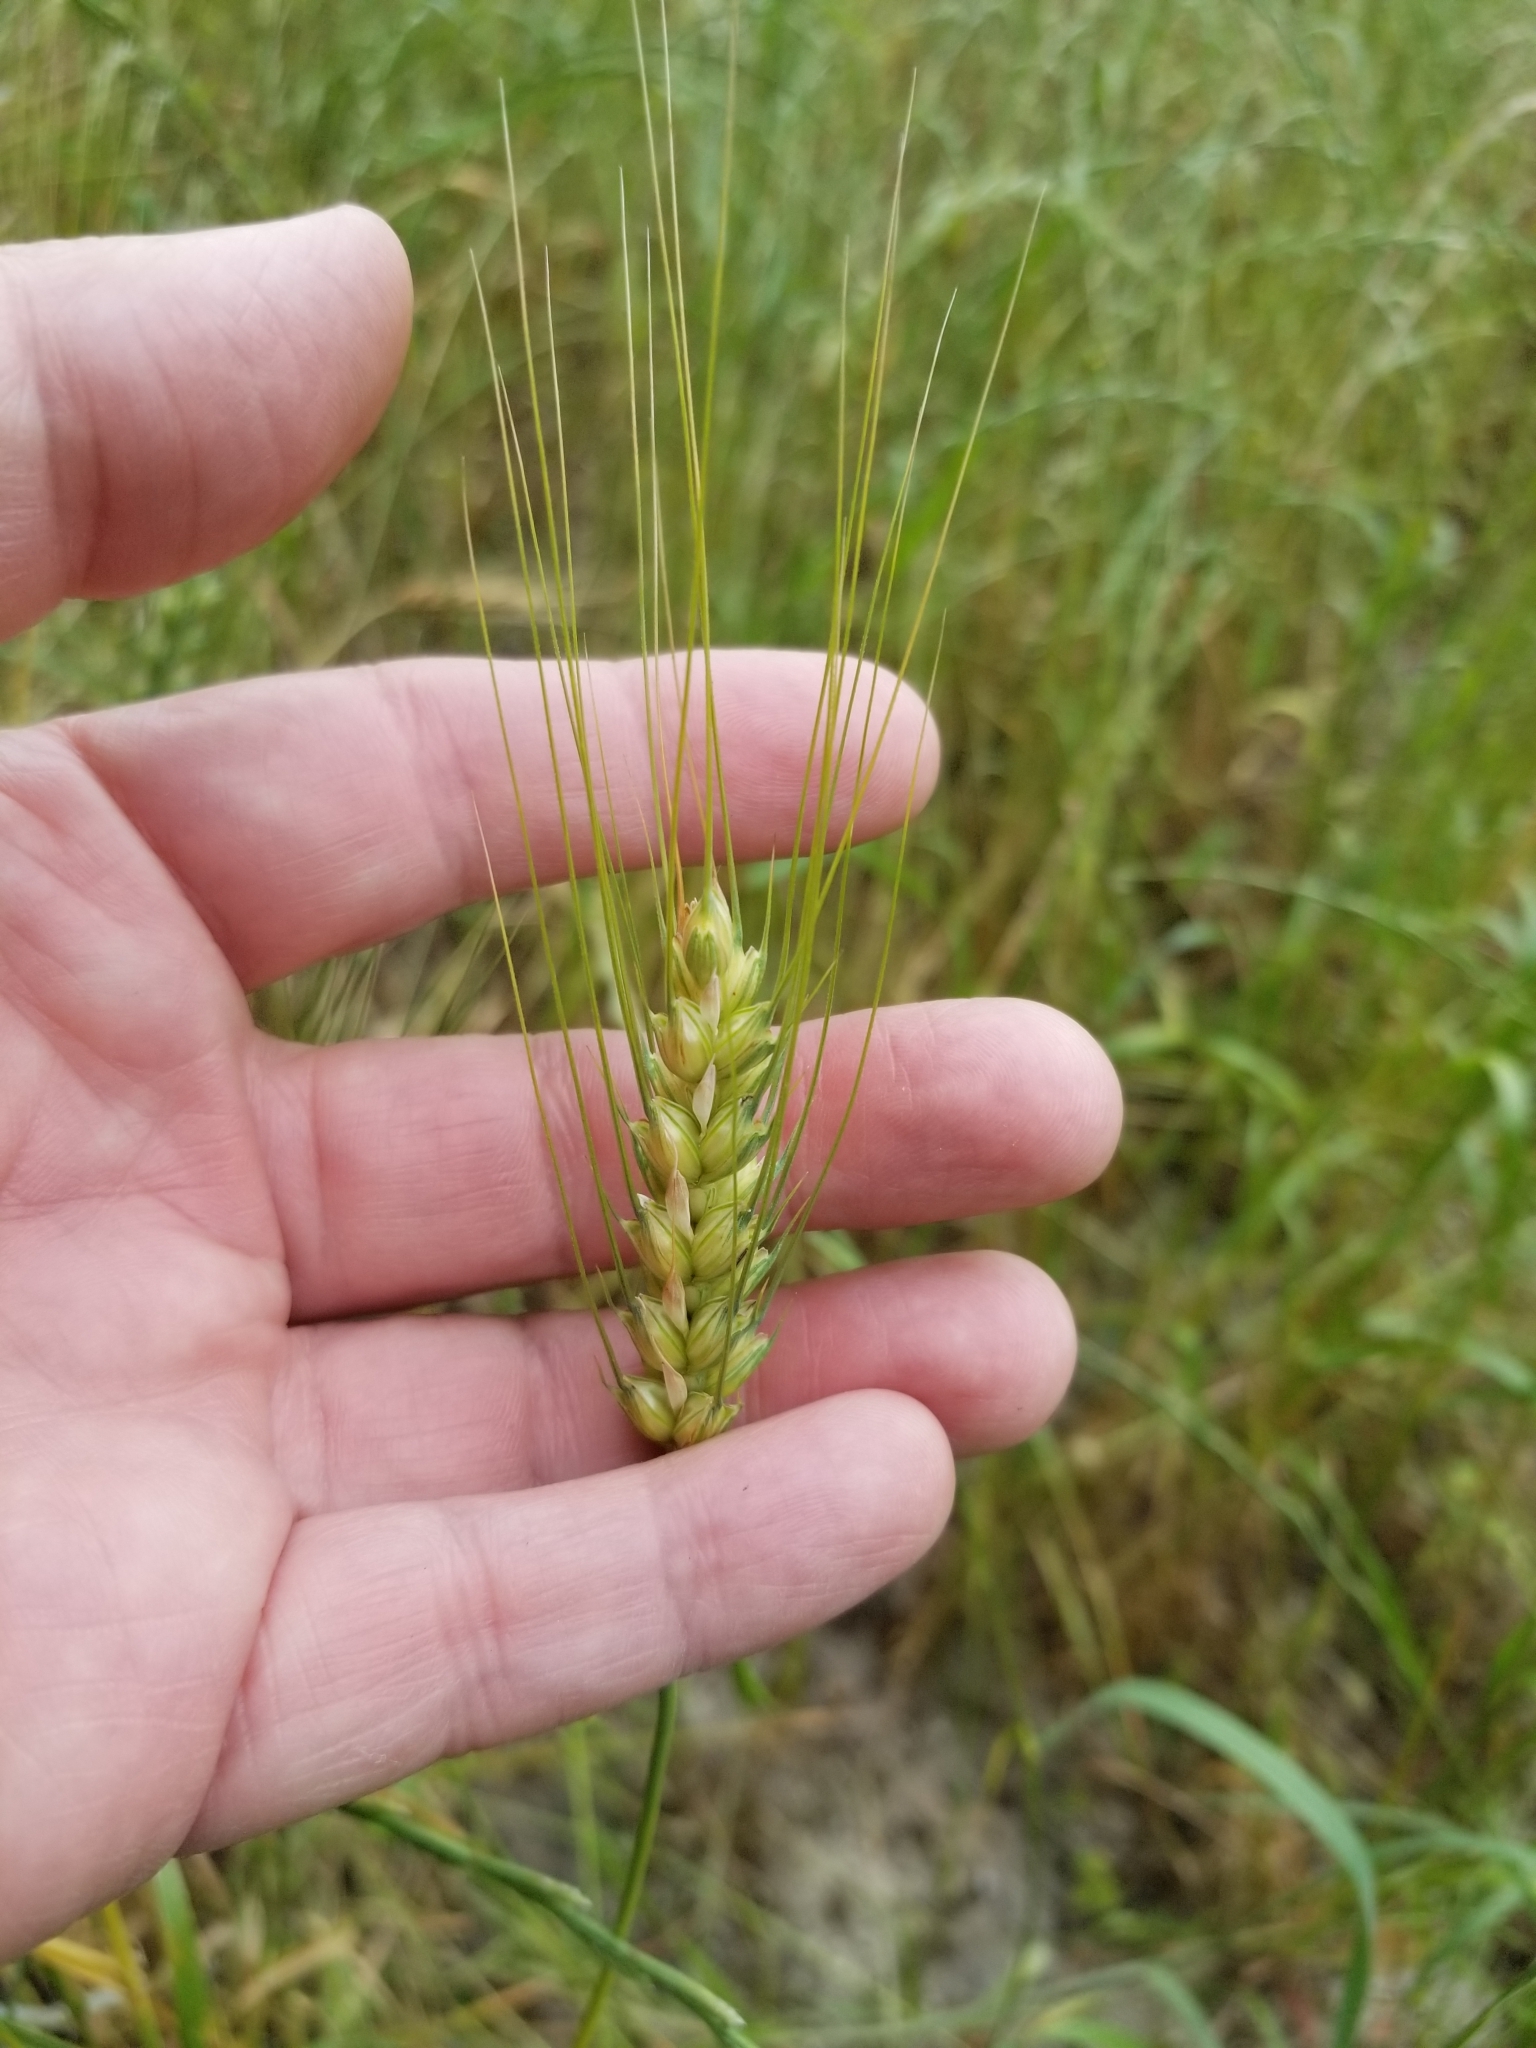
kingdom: Plantae
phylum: Tracheophyta
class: Liliopsida
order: Poales
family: Poaceae
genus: Triticum
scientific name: Triticum aestivum
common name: Common wheat
